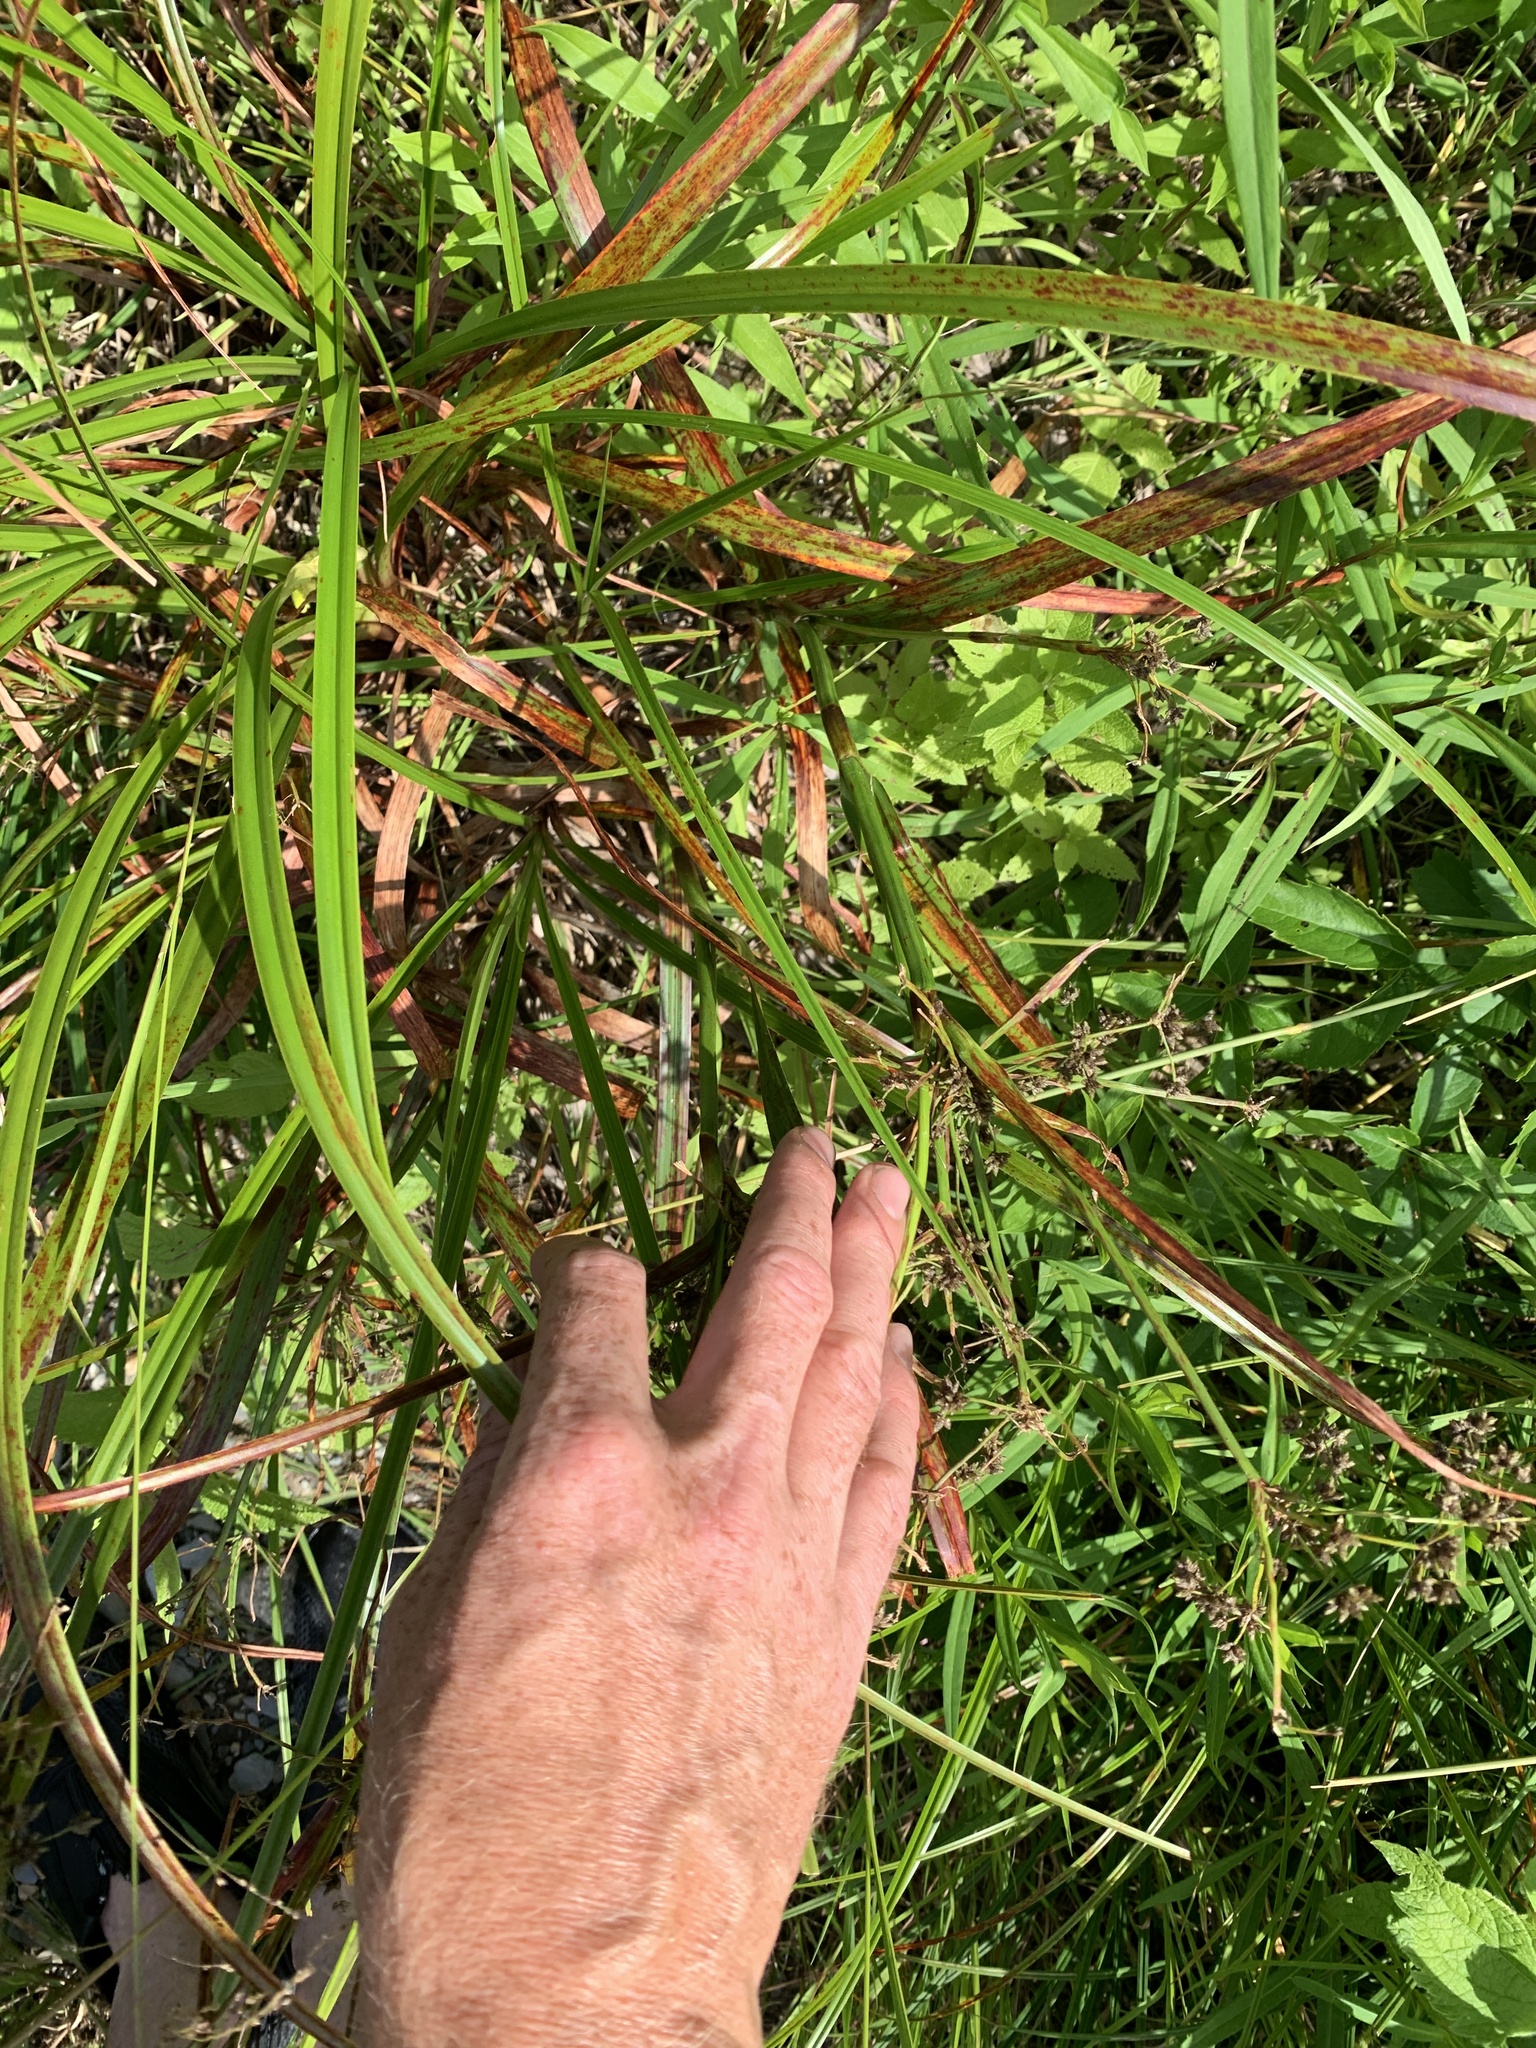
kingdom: Plantae
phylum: Tracheophyta
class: Liliopsida
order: Poales
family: Cyperaceae
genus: Scirpus
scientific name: Scirpus microcarpus
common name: Panicled bulrush
